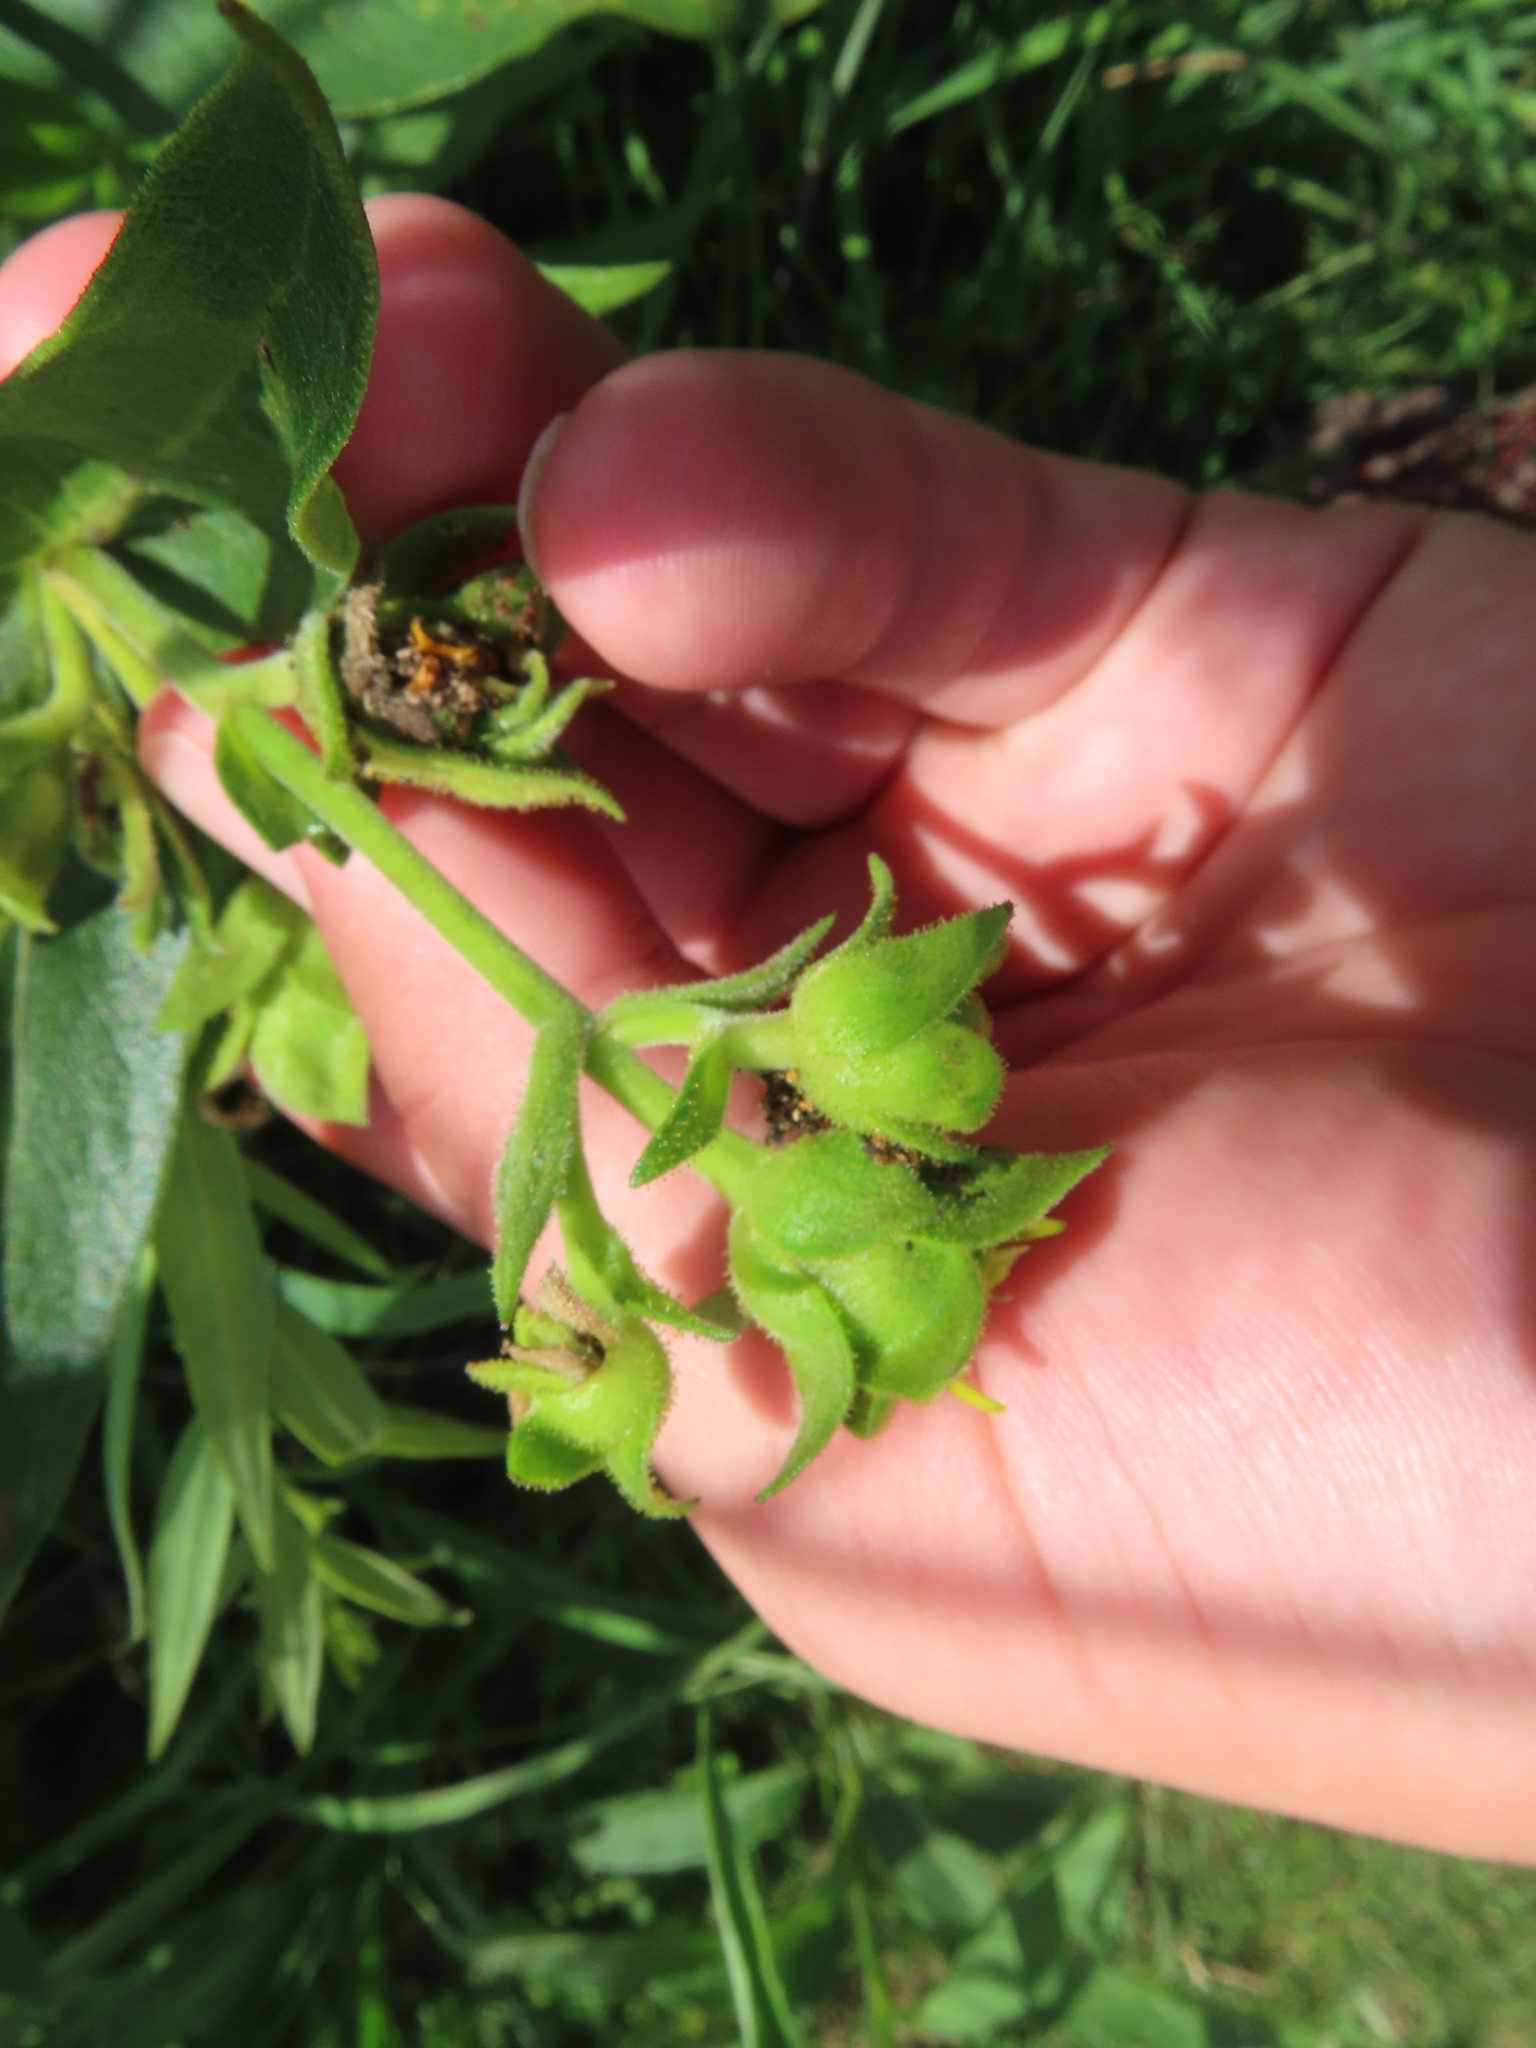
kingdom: Plantae
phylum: Tracheophyta
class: Magnoliopsida
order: Asterales
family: Asteraceae
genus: Silphium
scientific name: Silphium integrifolium
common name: Whole-leaf rosinweed
